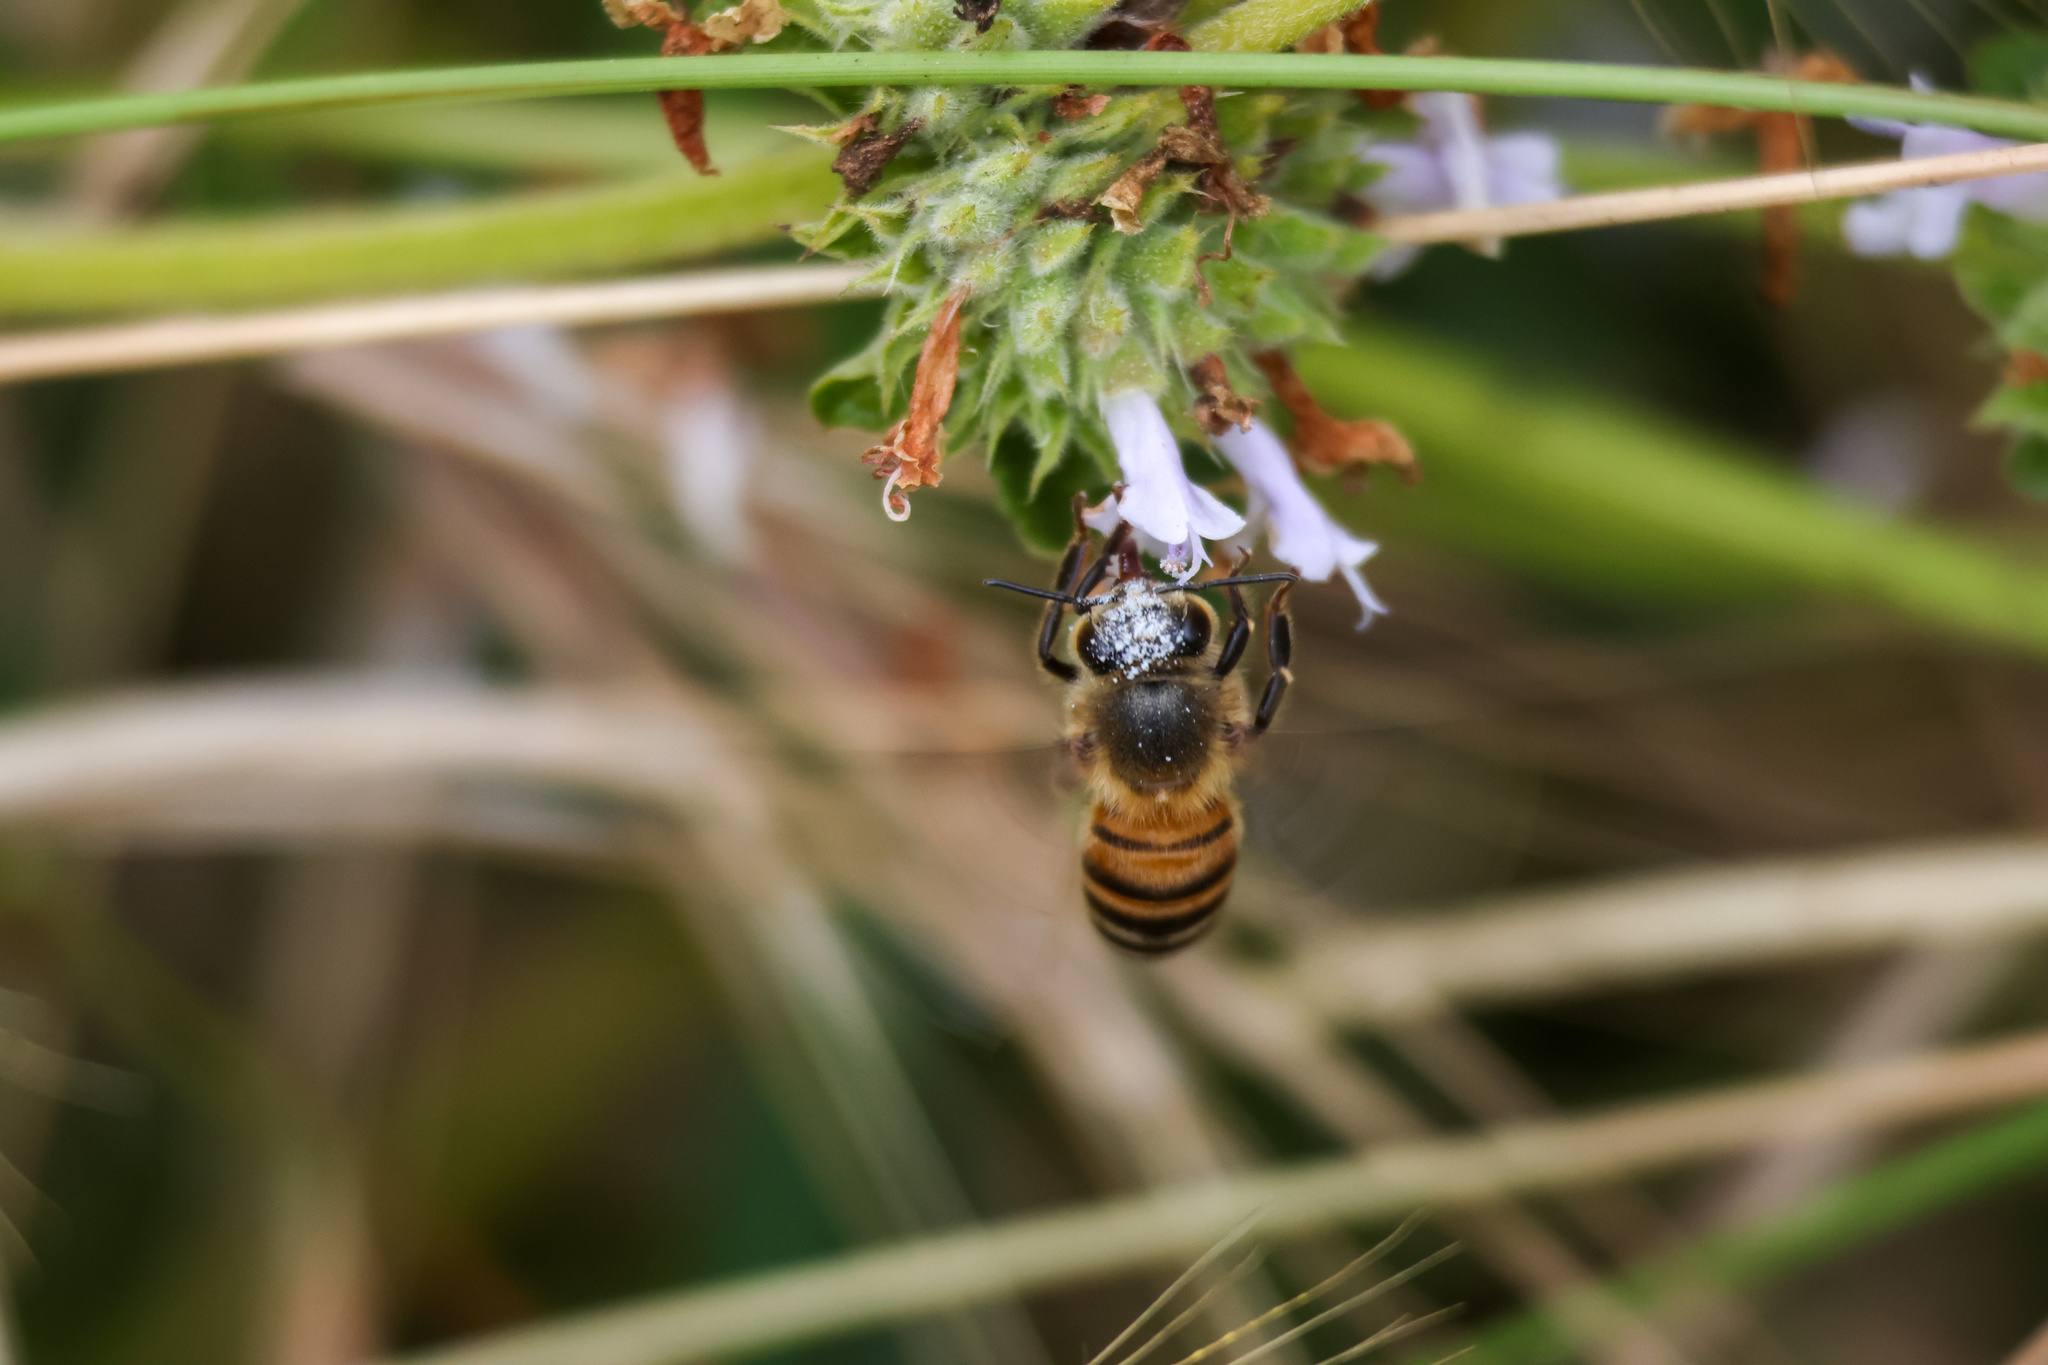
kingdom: Animalia
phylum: Arthropoda
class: Insecta
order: Hymenoptera
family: Apidae
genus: Apis
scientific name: Apis mellifera
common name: Honey bee
